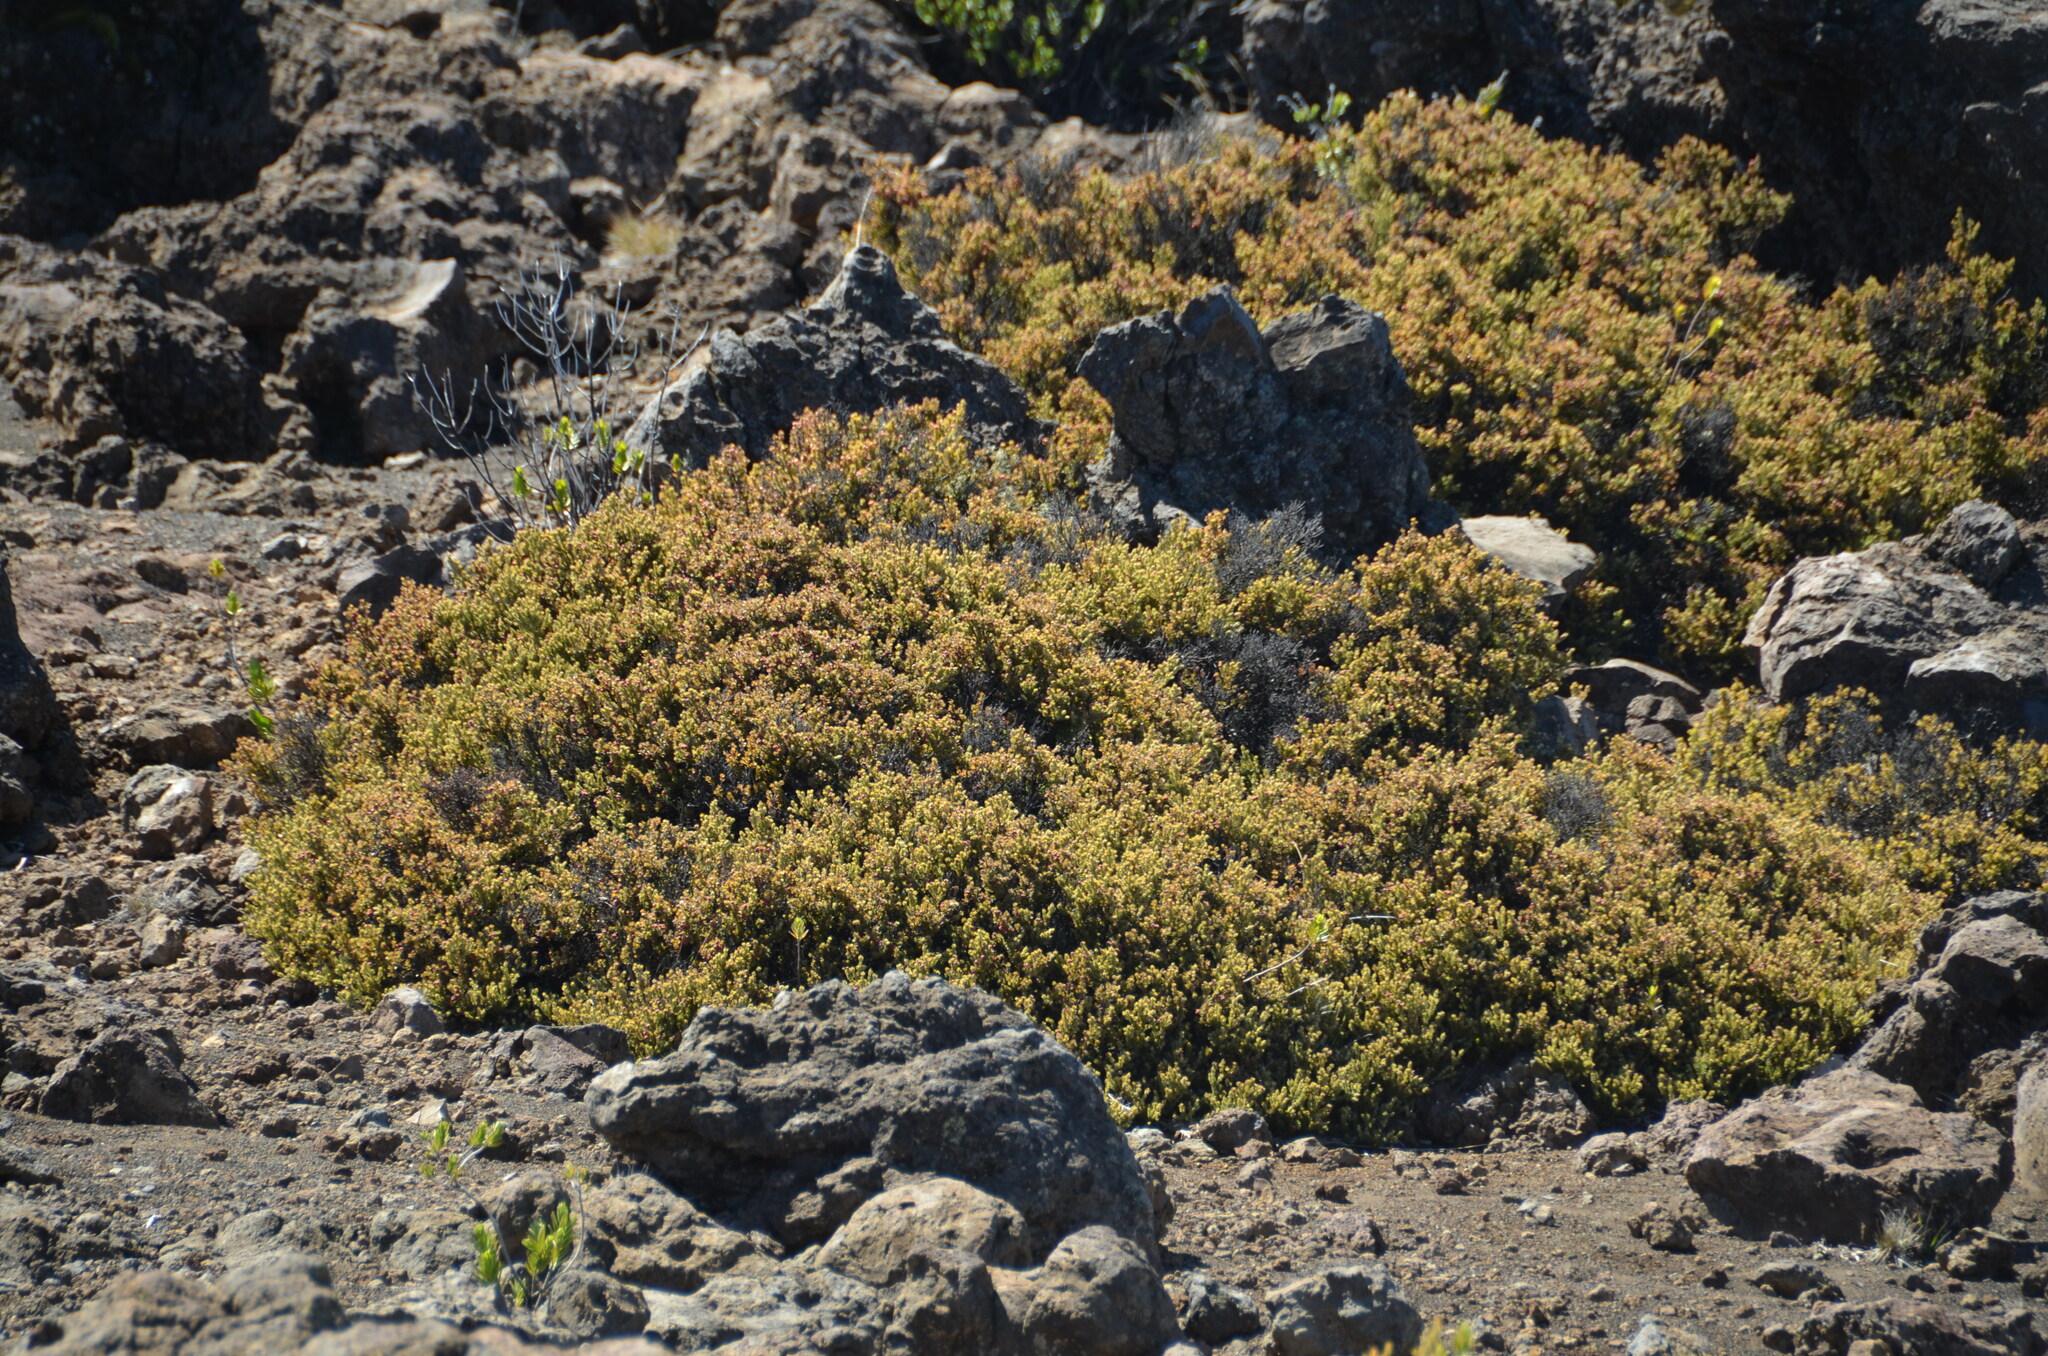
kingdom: Plantae
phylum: Tracheophyta
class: Magnoliopsida
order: Ericales
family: Ericaceae
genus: Leptecophylla
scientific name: Leptecophylla tameiameiae
